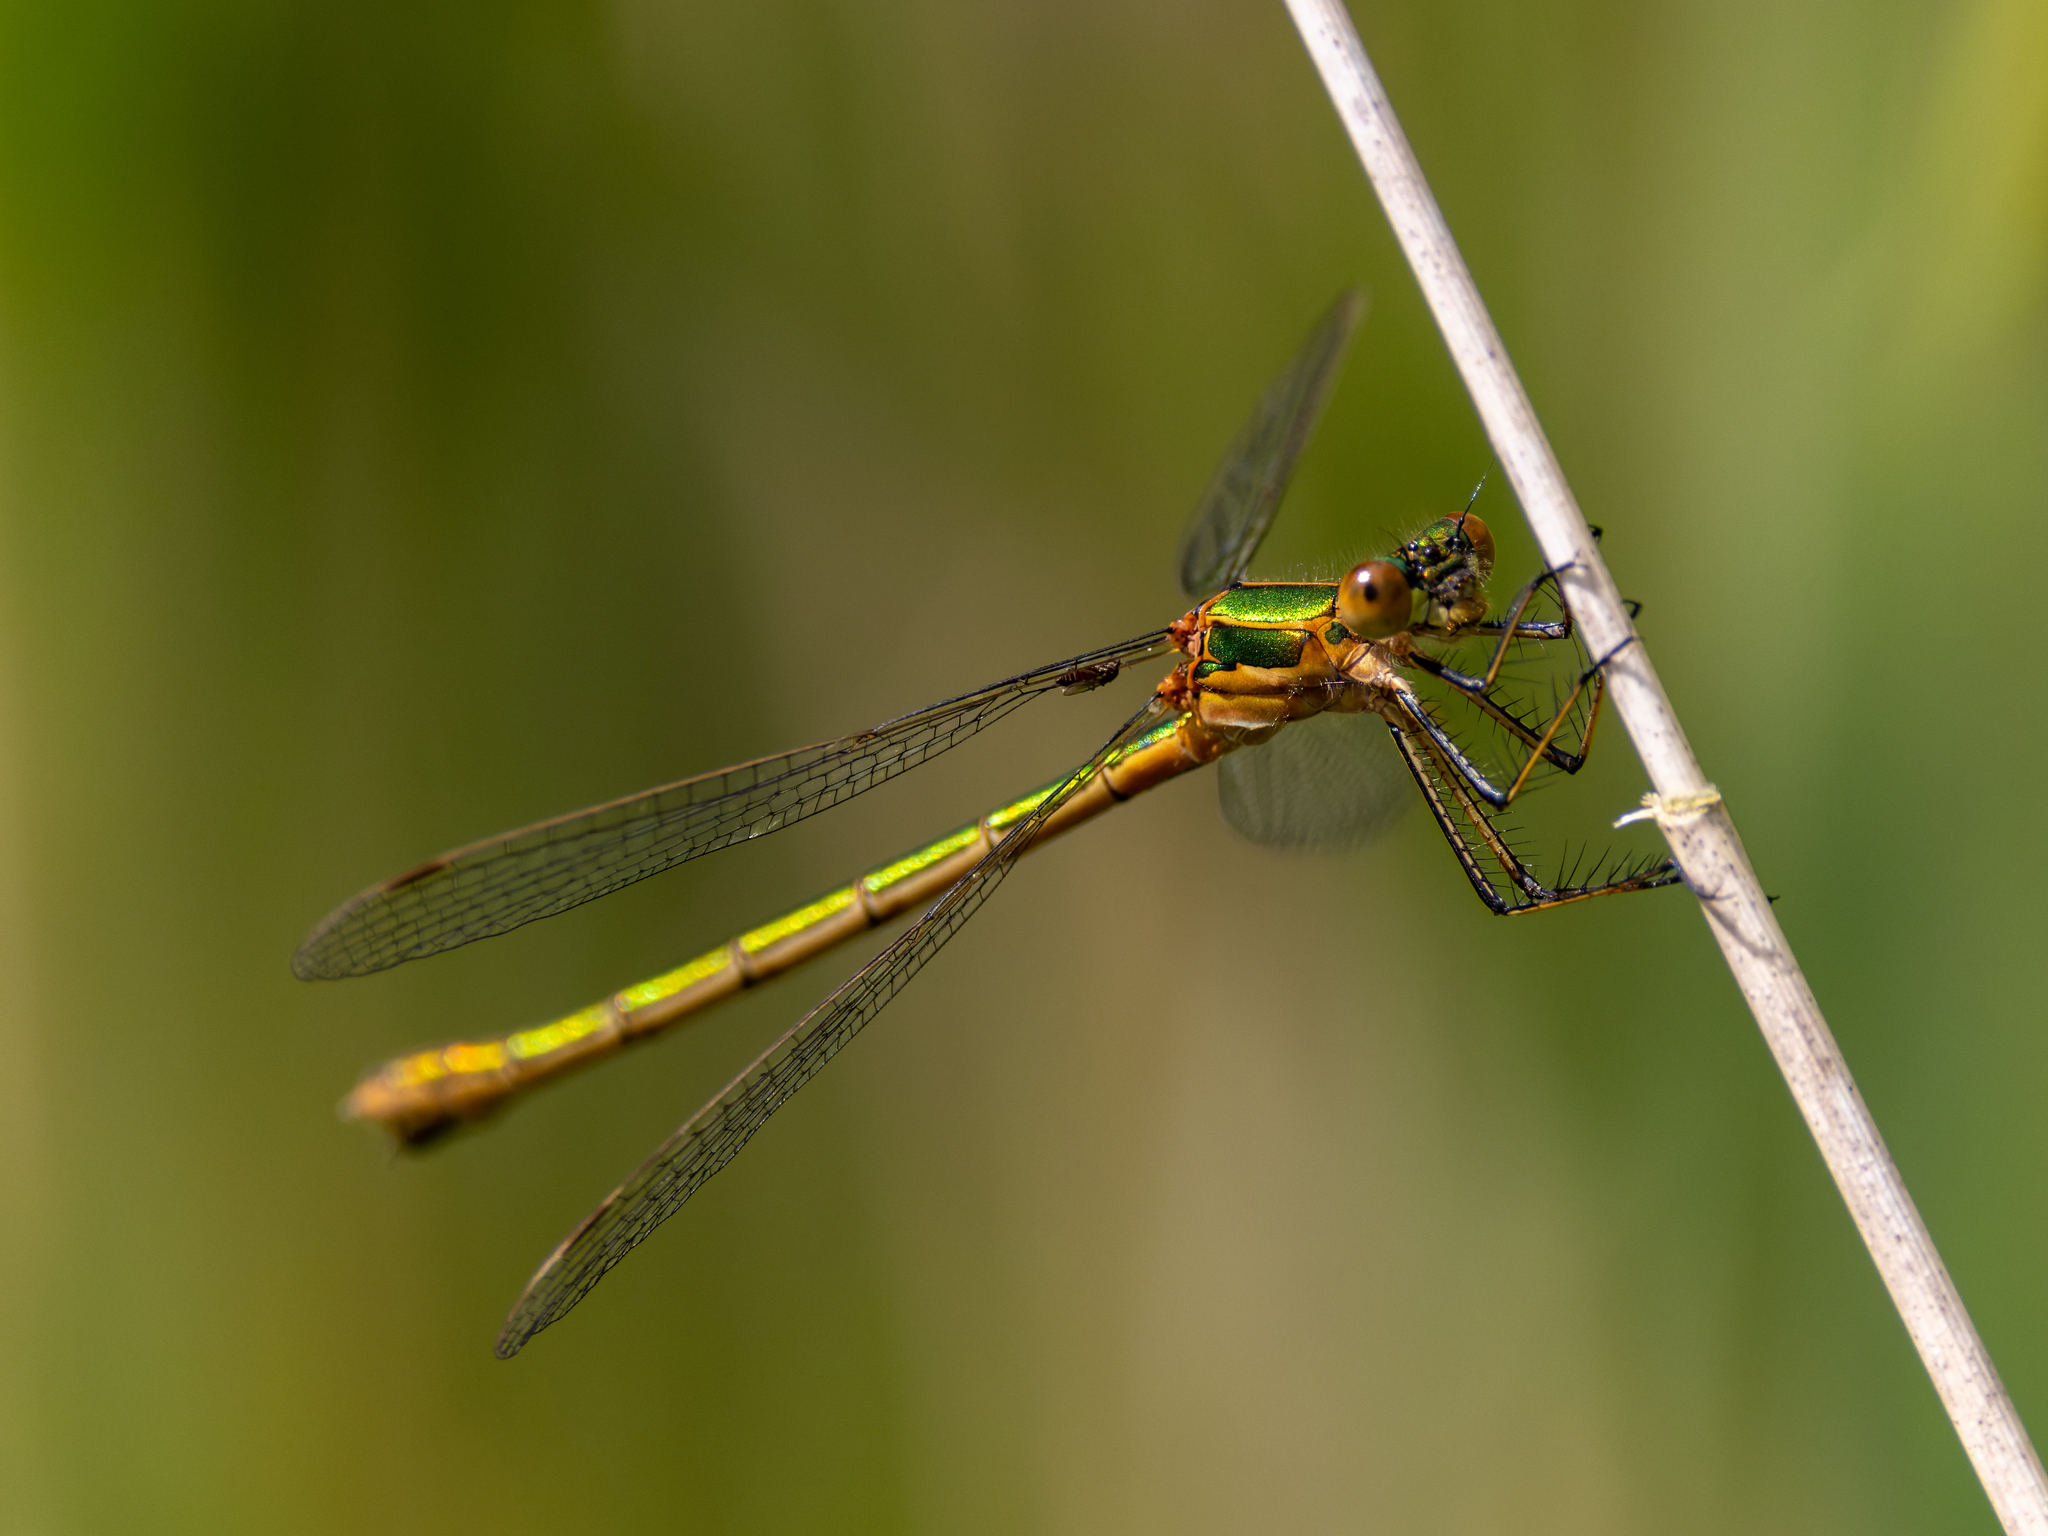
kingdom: Animalia
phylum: Arthropoda
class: Insecta
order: Odonata
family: Lestidae
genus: Lestes
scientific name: Lestes sponsa
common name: Common spreadwing
